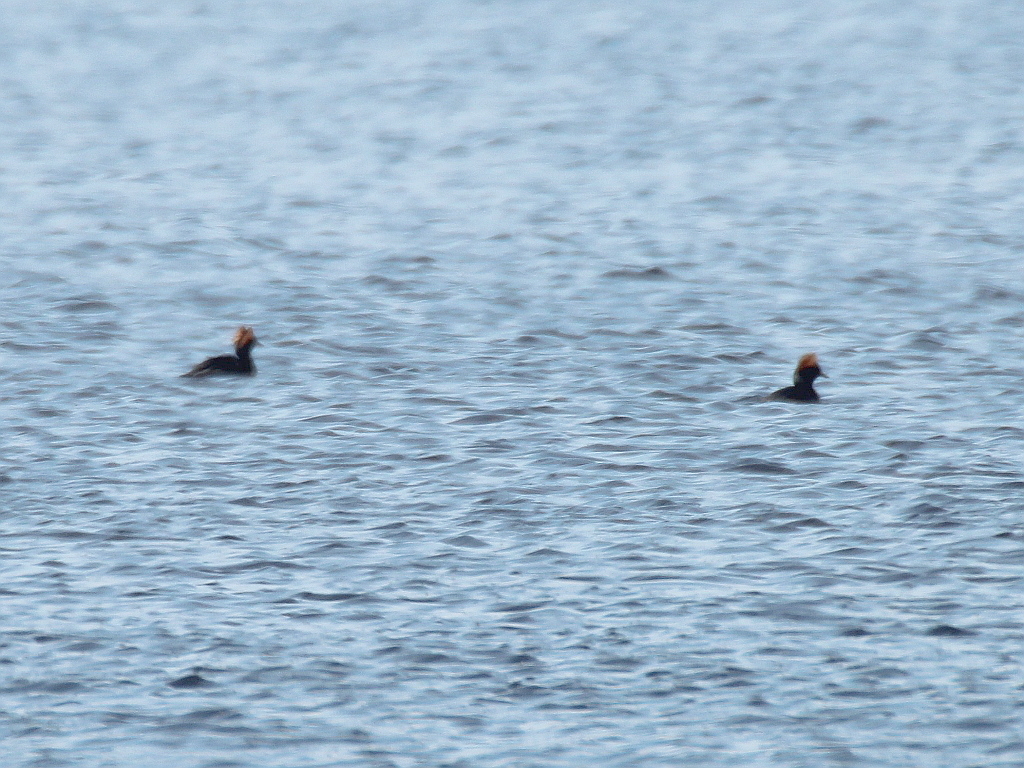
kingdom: Animalia
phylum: Chordata
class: Aves
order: Podicipediformes
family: Podicipedidae
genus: Podiceps
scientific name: Podiceps auritus
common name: Horned grebe
